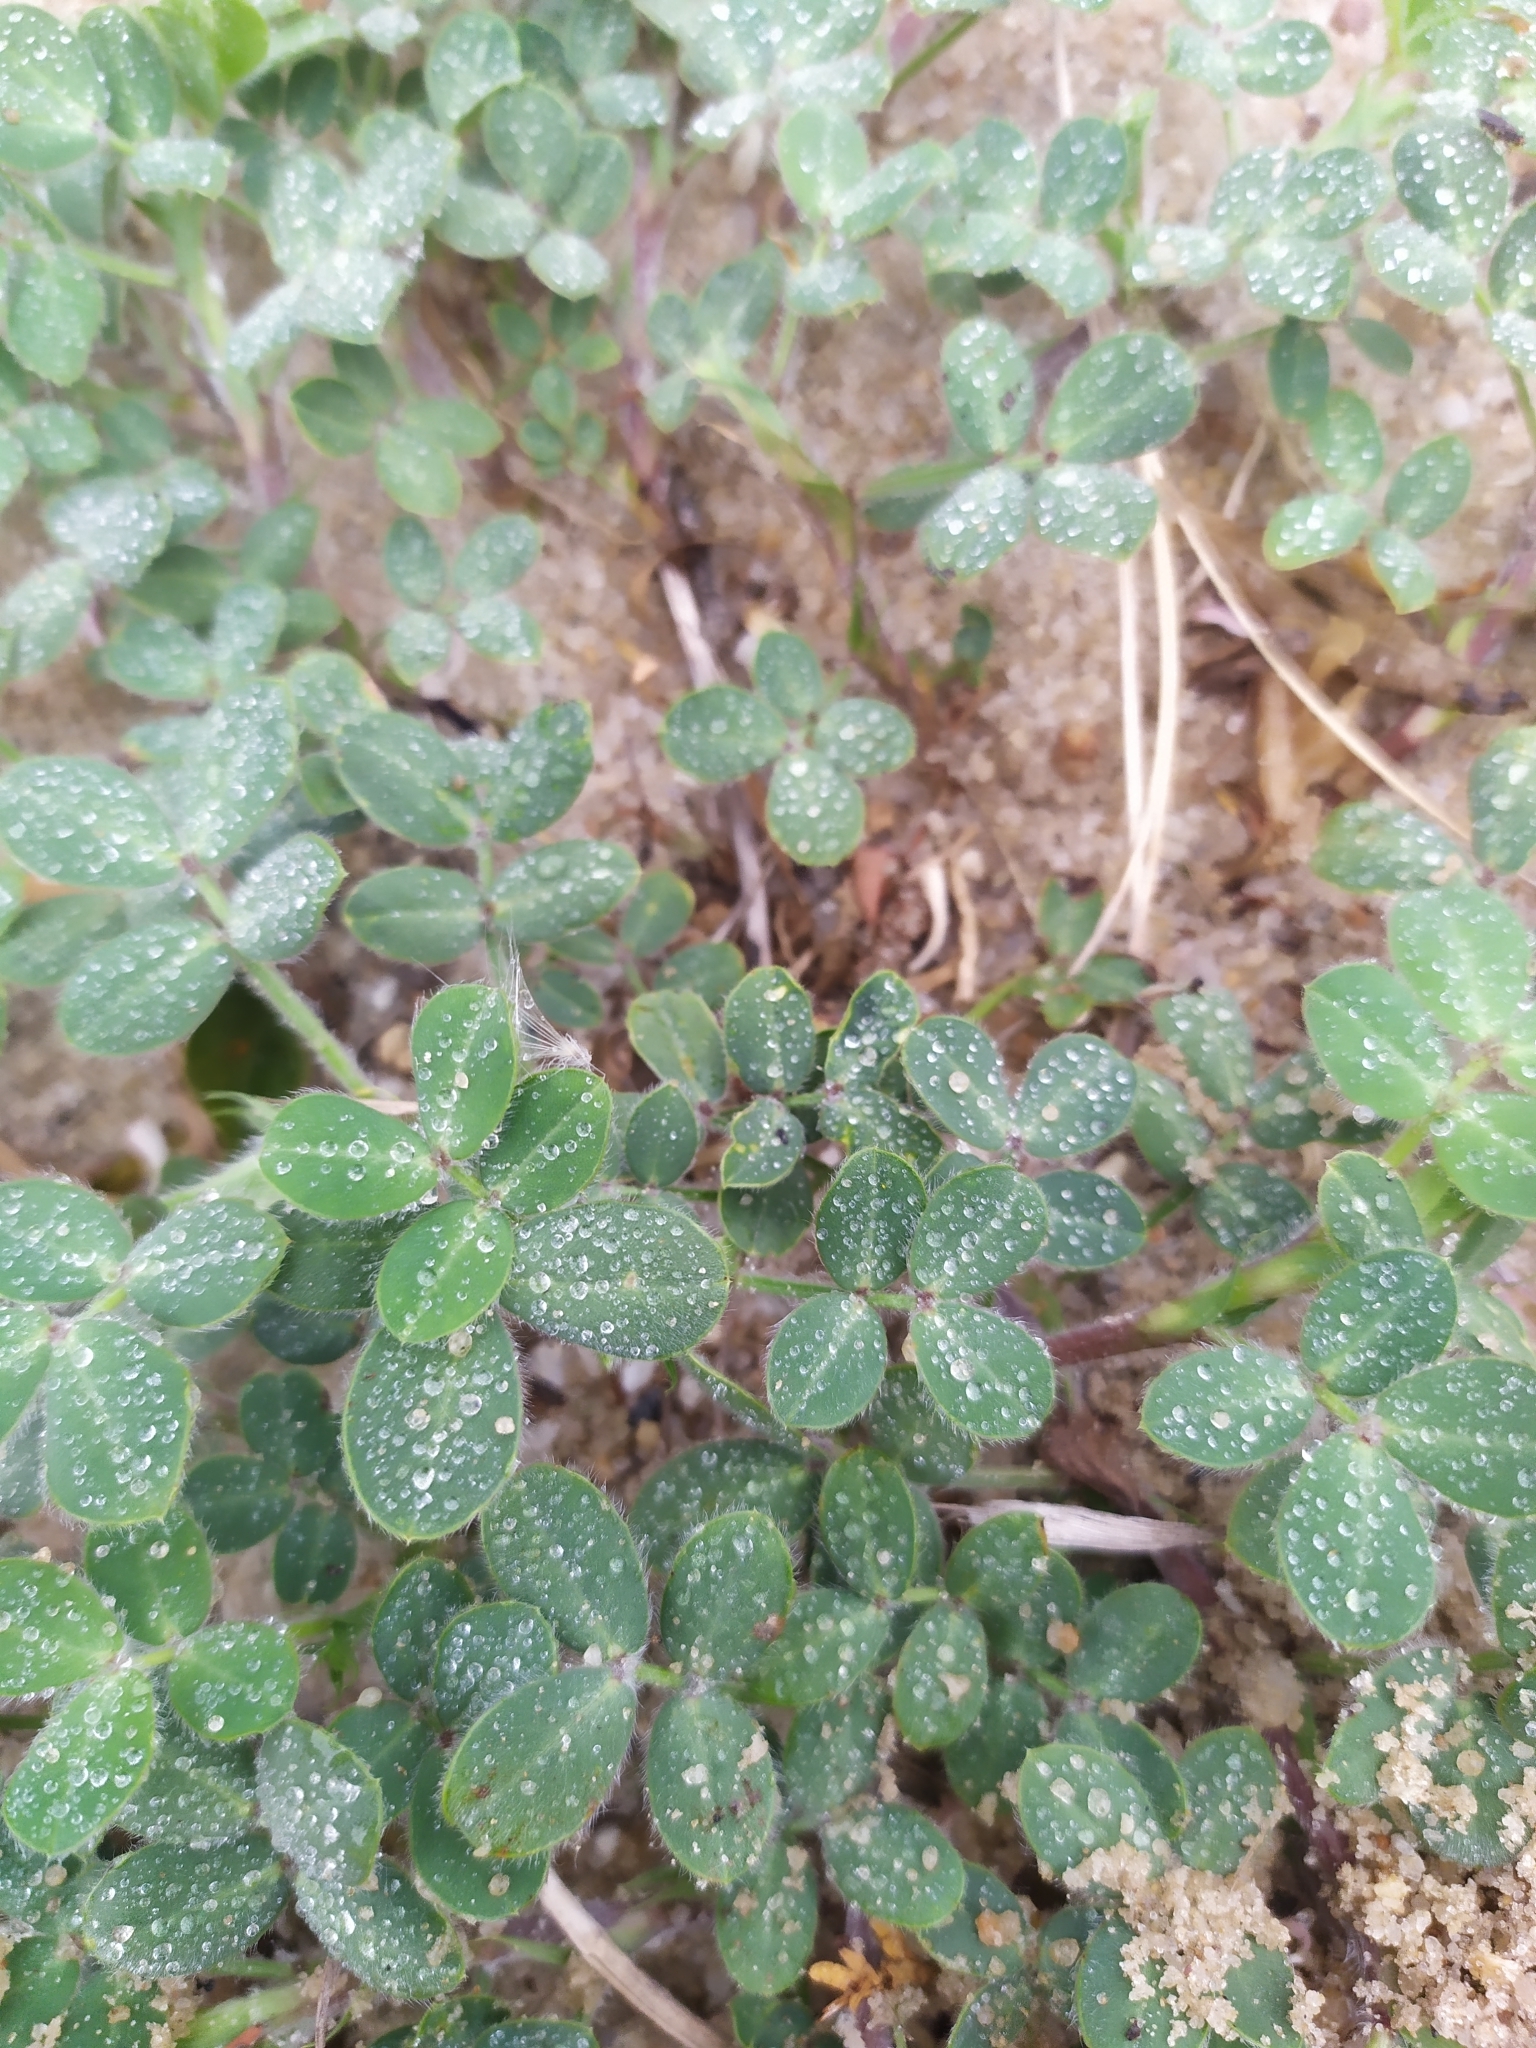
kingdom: Plantae
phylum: Tracheophyta
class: Magnoliopsida
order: Fabales
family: Fabaceae
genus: Arachis
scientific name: Arachis villosa
